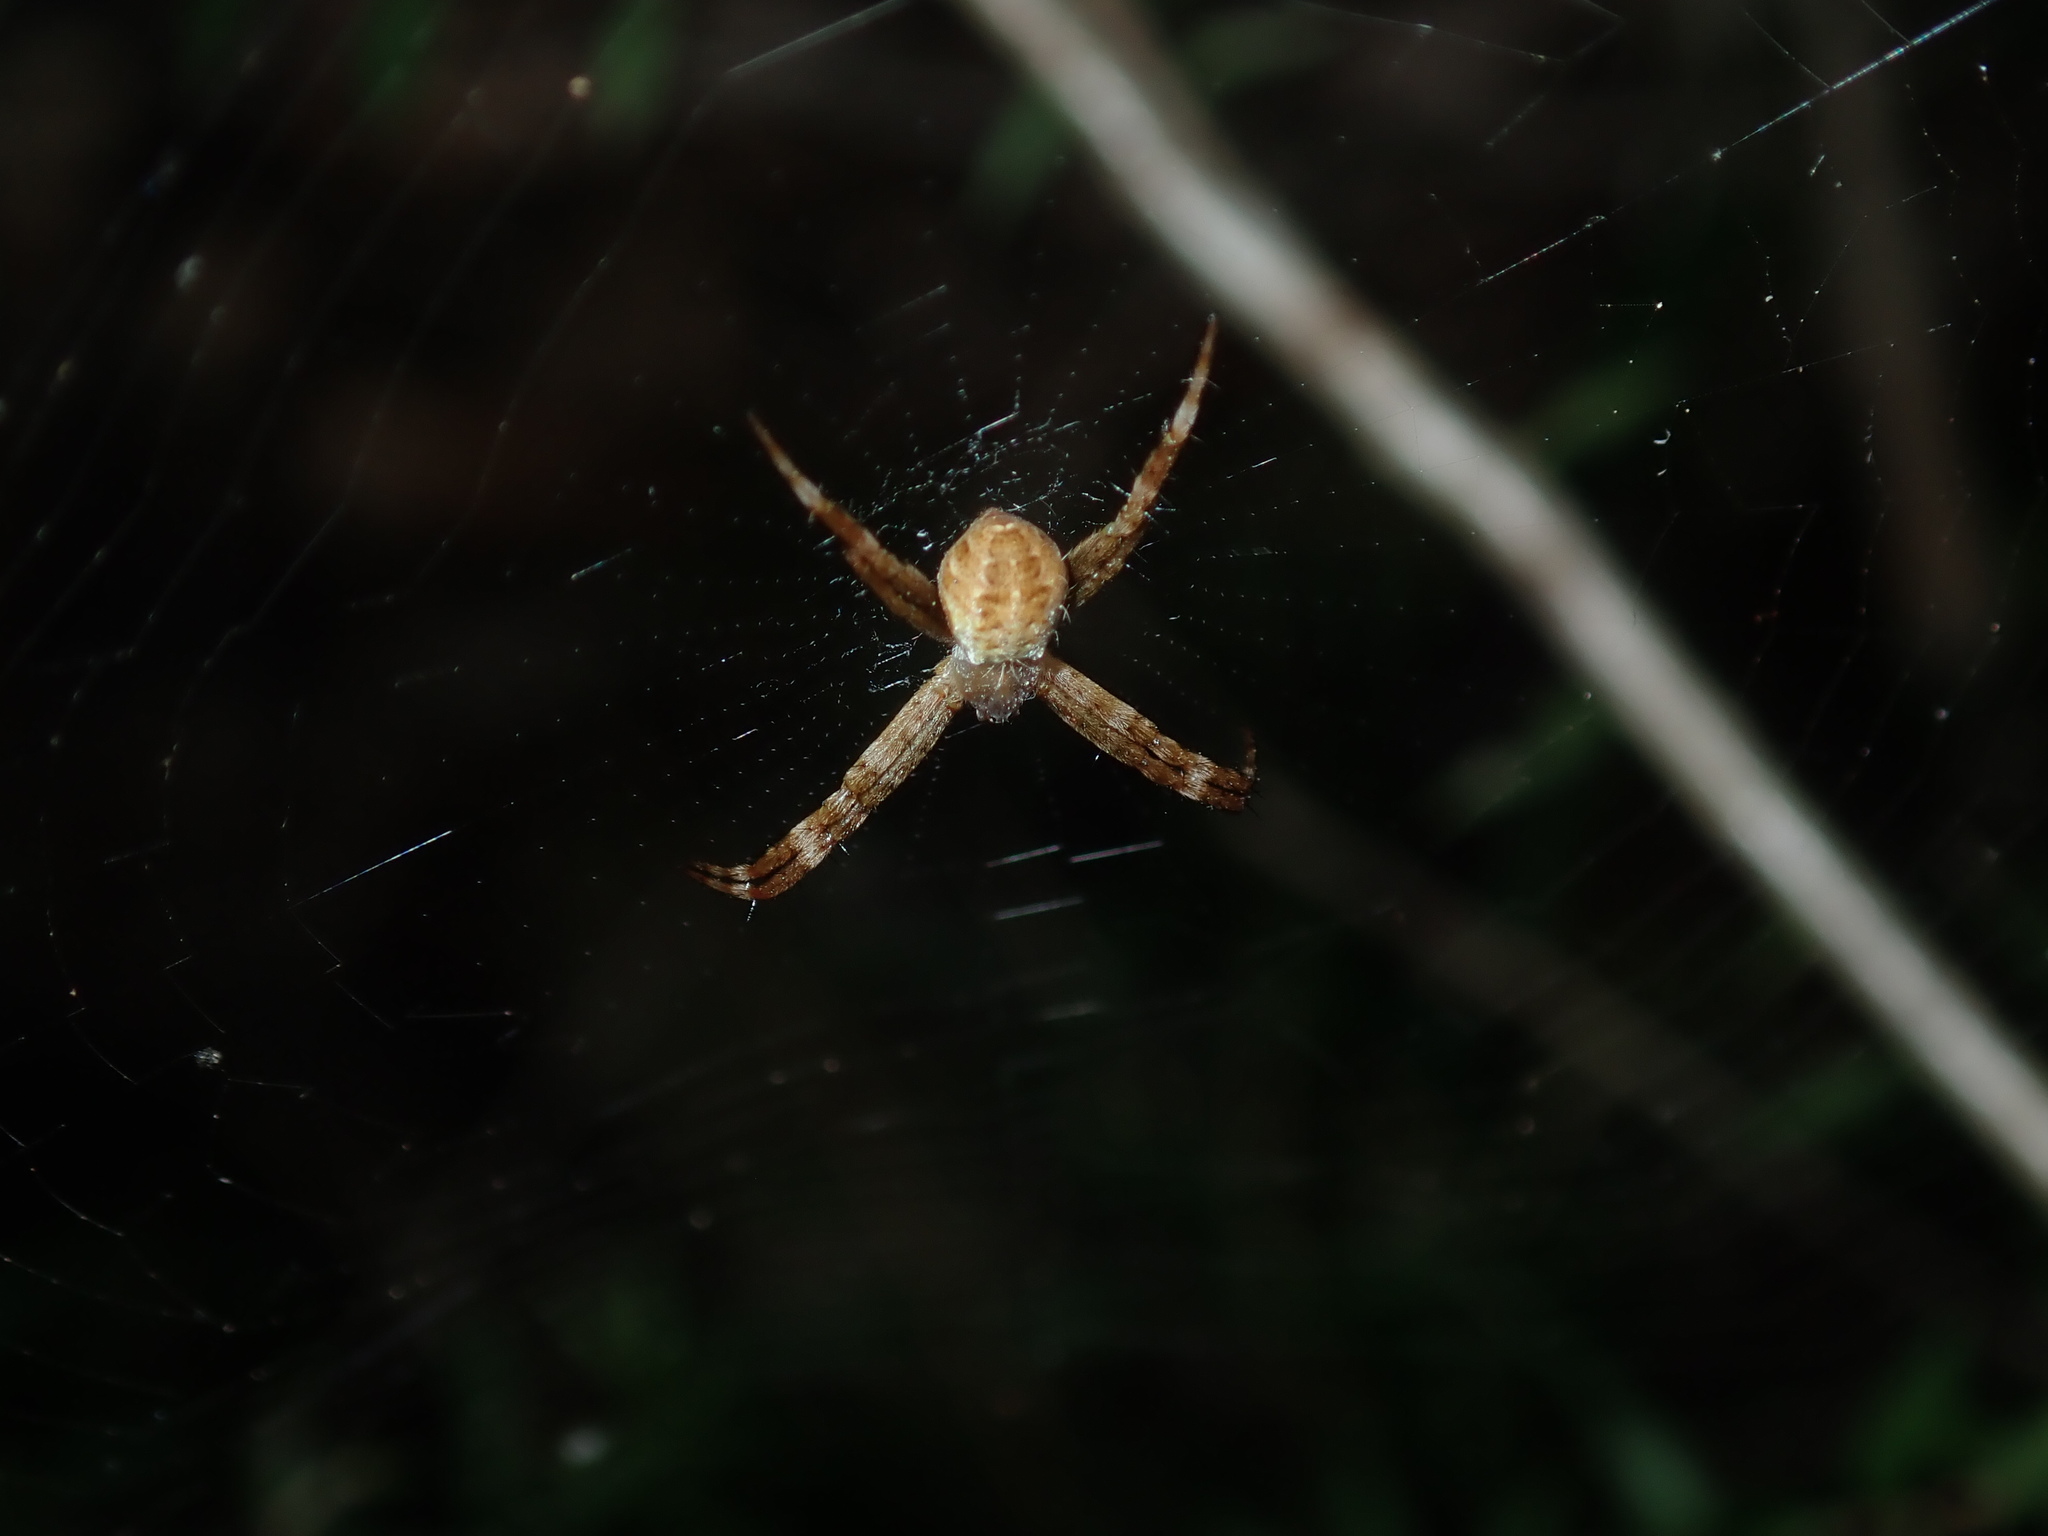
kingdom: Animalia
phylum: Arthropoda
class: Arachnida
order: Araneae
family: Araneidae
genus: Argiope
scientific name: Argiope keyserlingi
